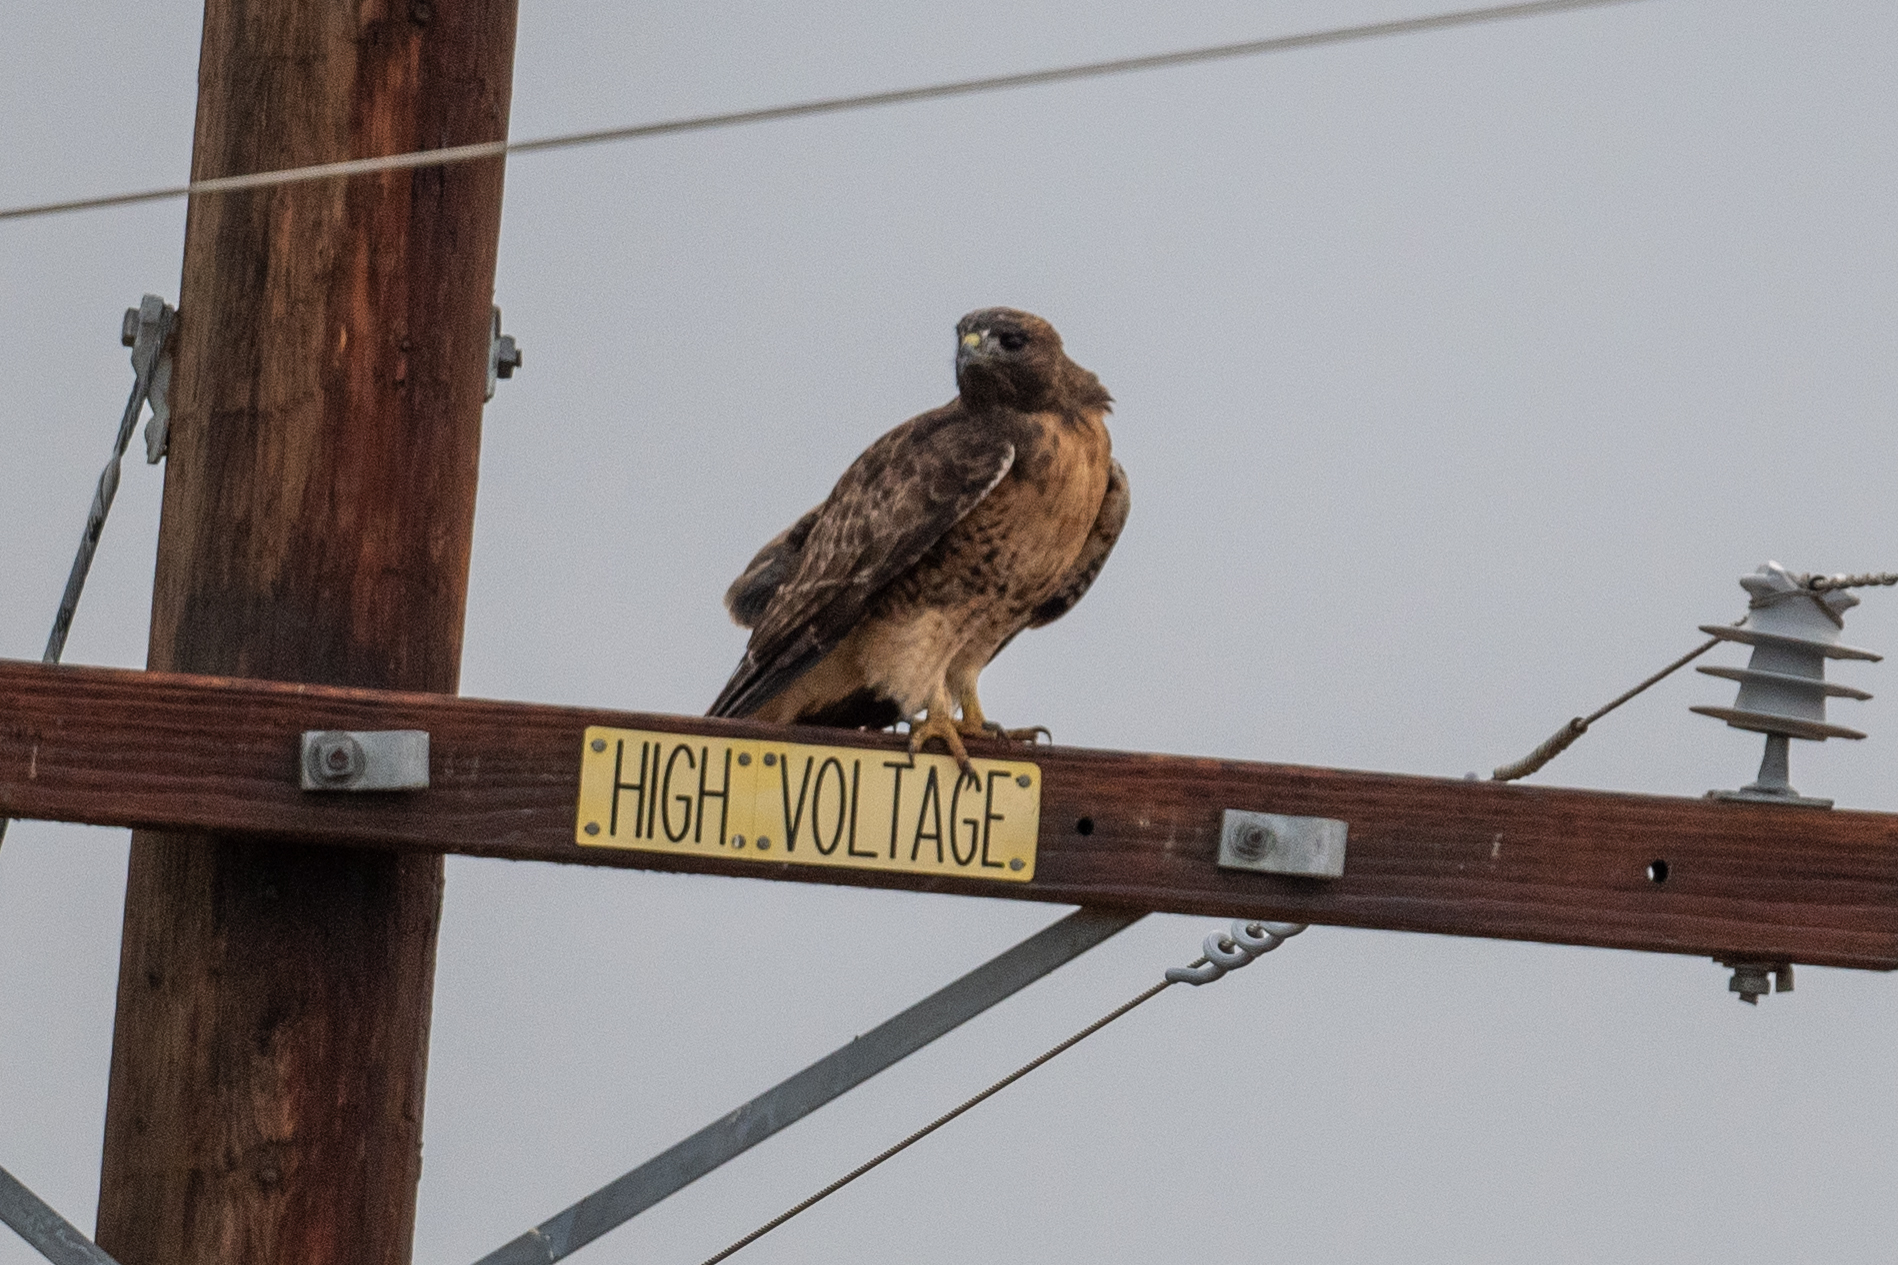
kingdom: Animalia
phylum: Chordata
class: Aves
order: Accipitriformes
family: Accipitridae
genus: Buteo
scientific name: Buteo jamaicensis
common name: Red-tailed hawk
